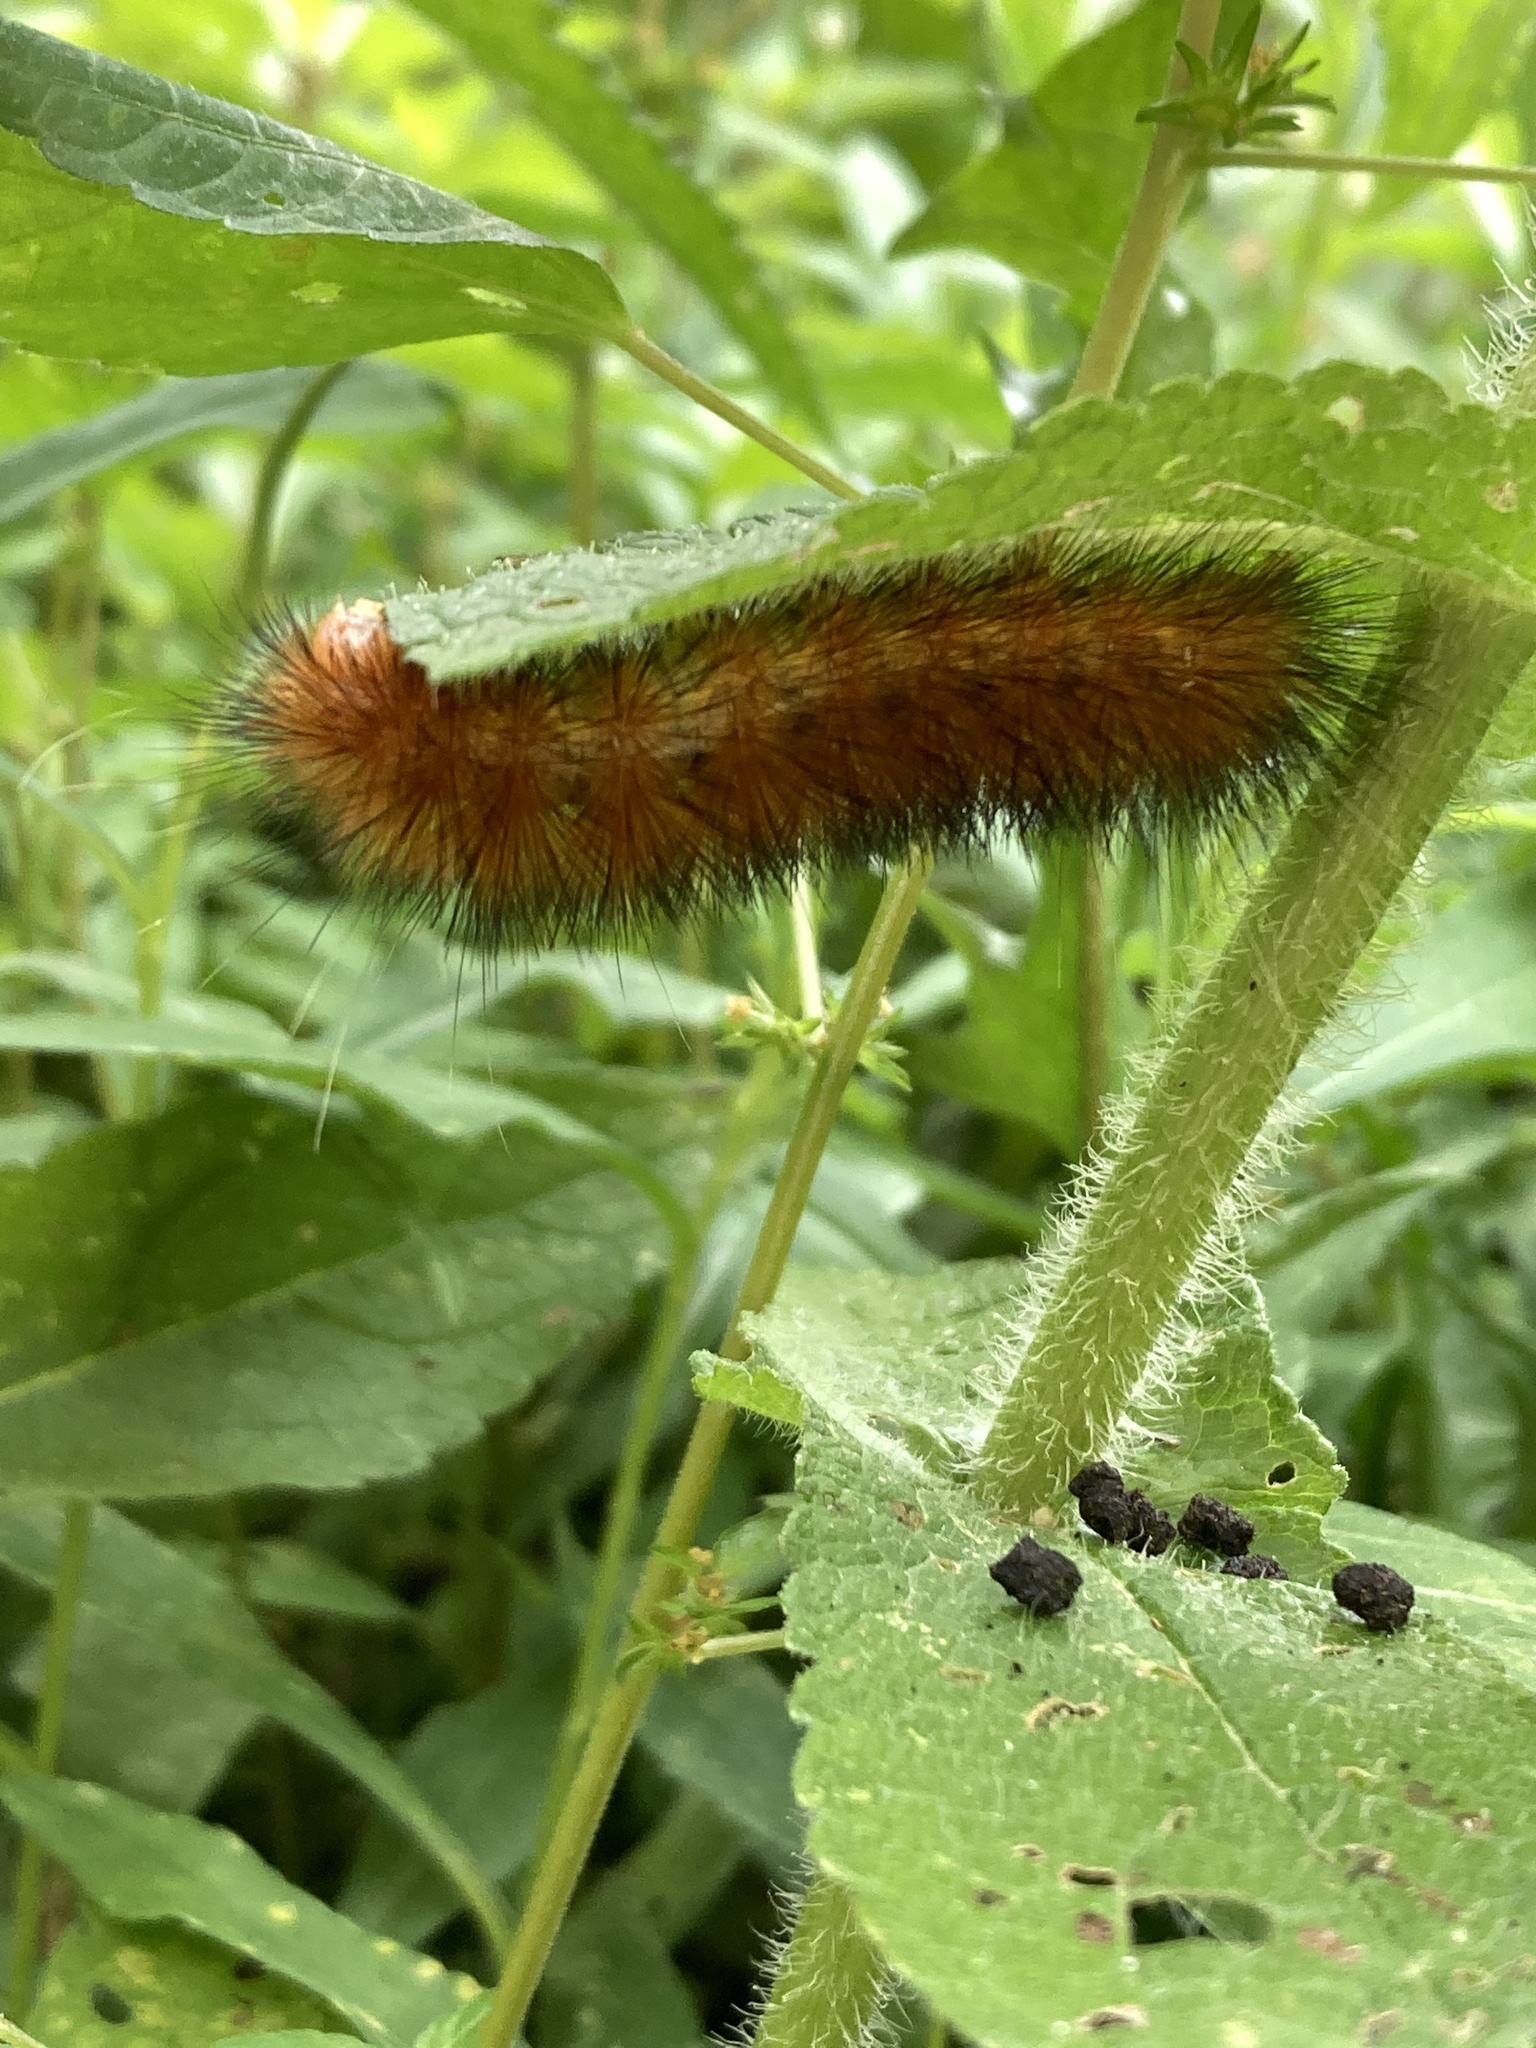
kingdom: Animalia
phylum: Arthropoda
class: Insecta
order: Lepidoptera
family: Erebidae
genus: Spilosoma
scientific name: Spilosoma virginica
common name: Virginia tiger moth
